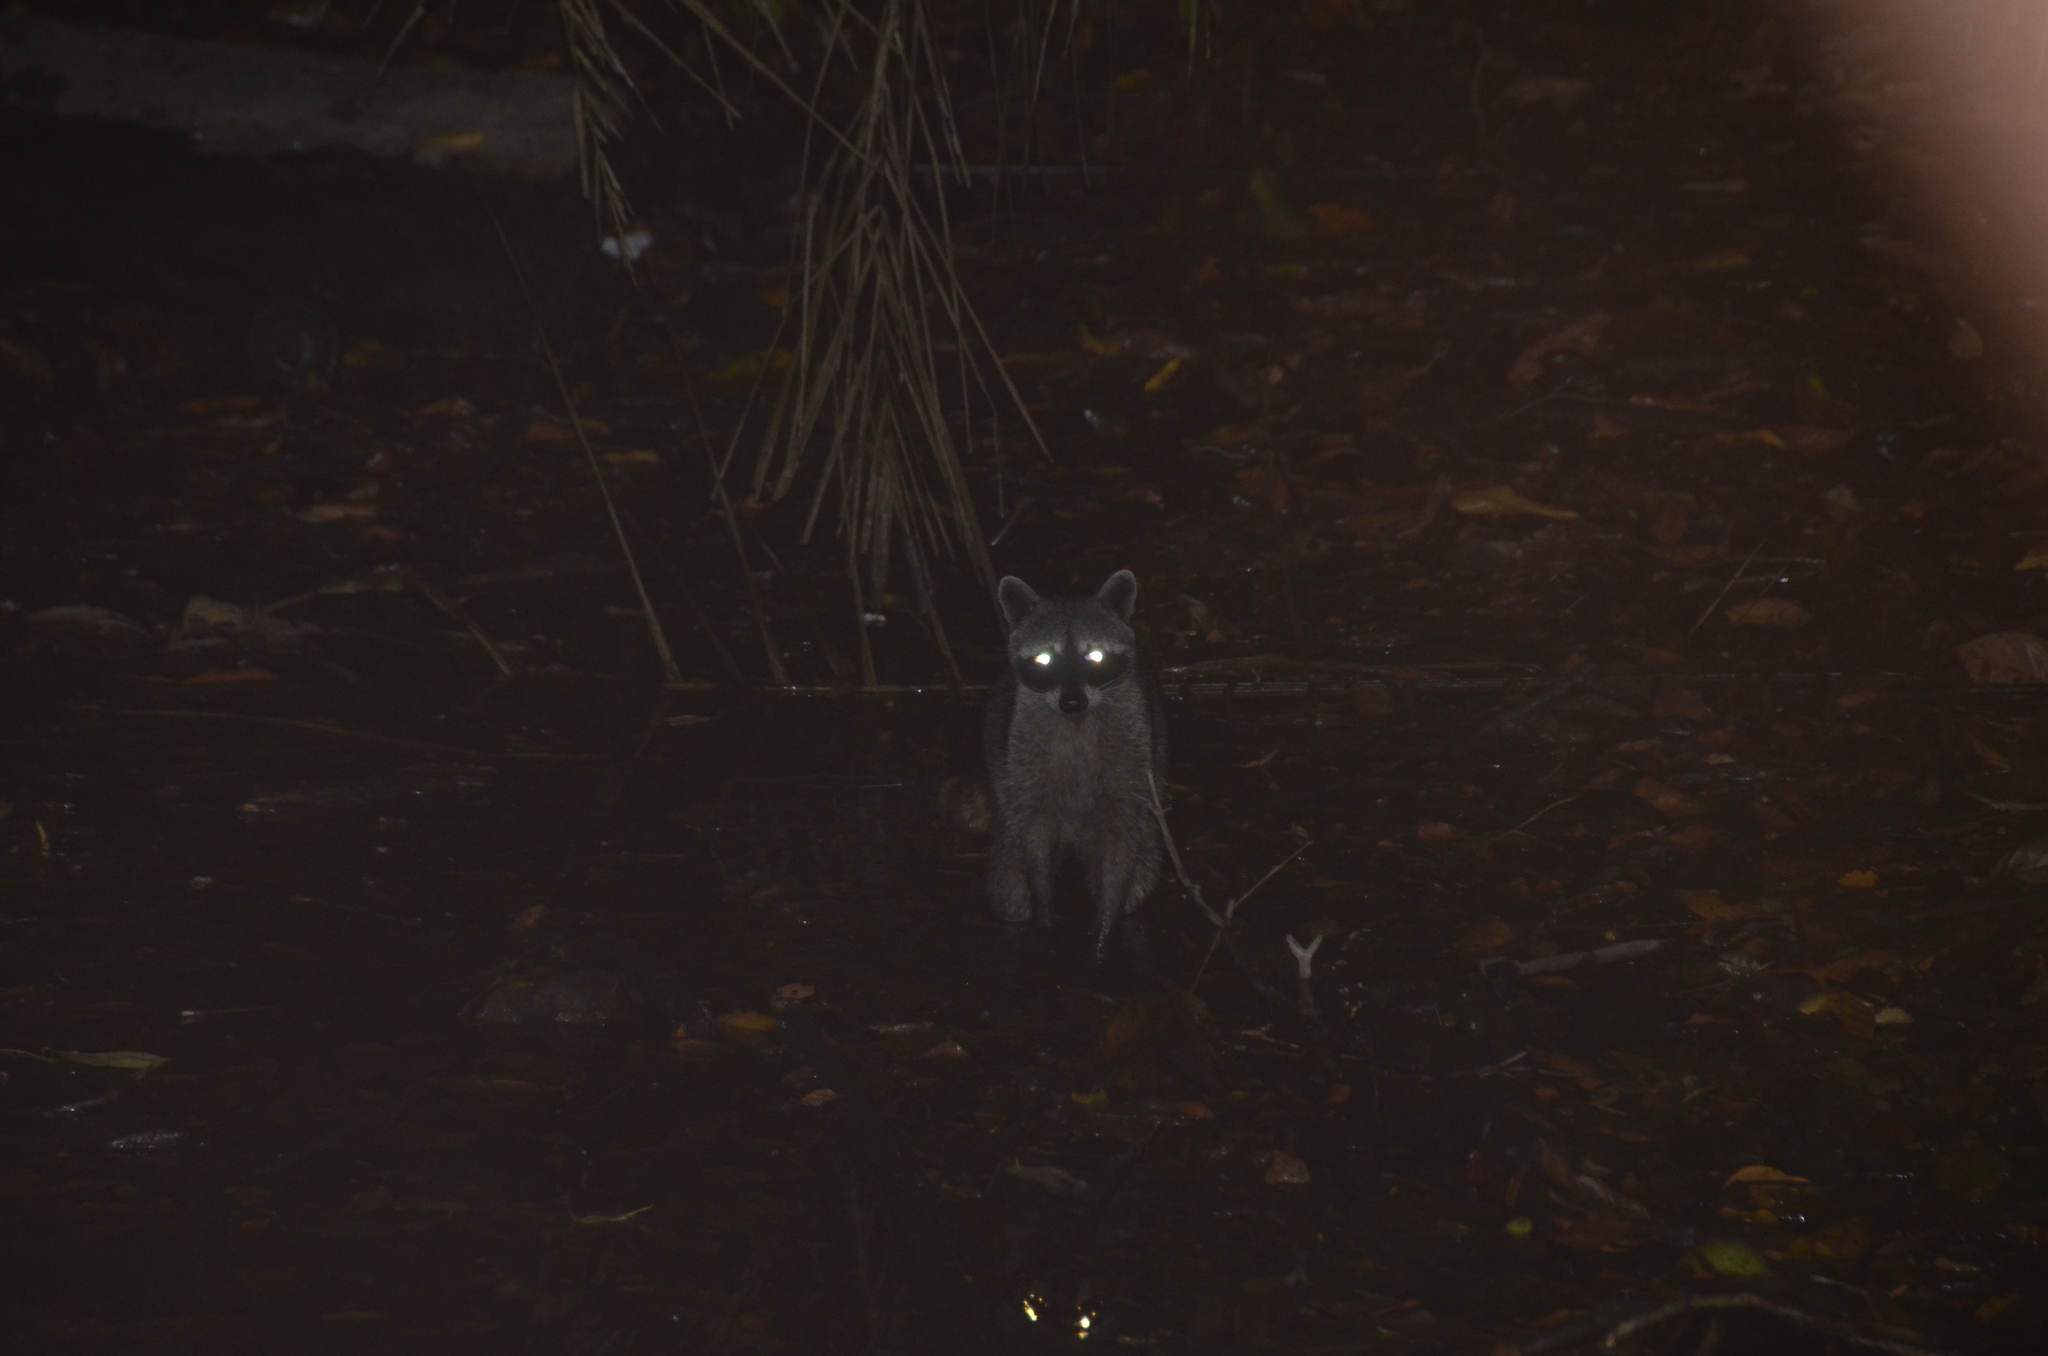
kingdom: Animalia
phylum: Chordata
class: Mammalia
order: Carnivora
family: Procyonidae
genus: Procyon
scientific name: Procyon lotor
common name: Raccoon
